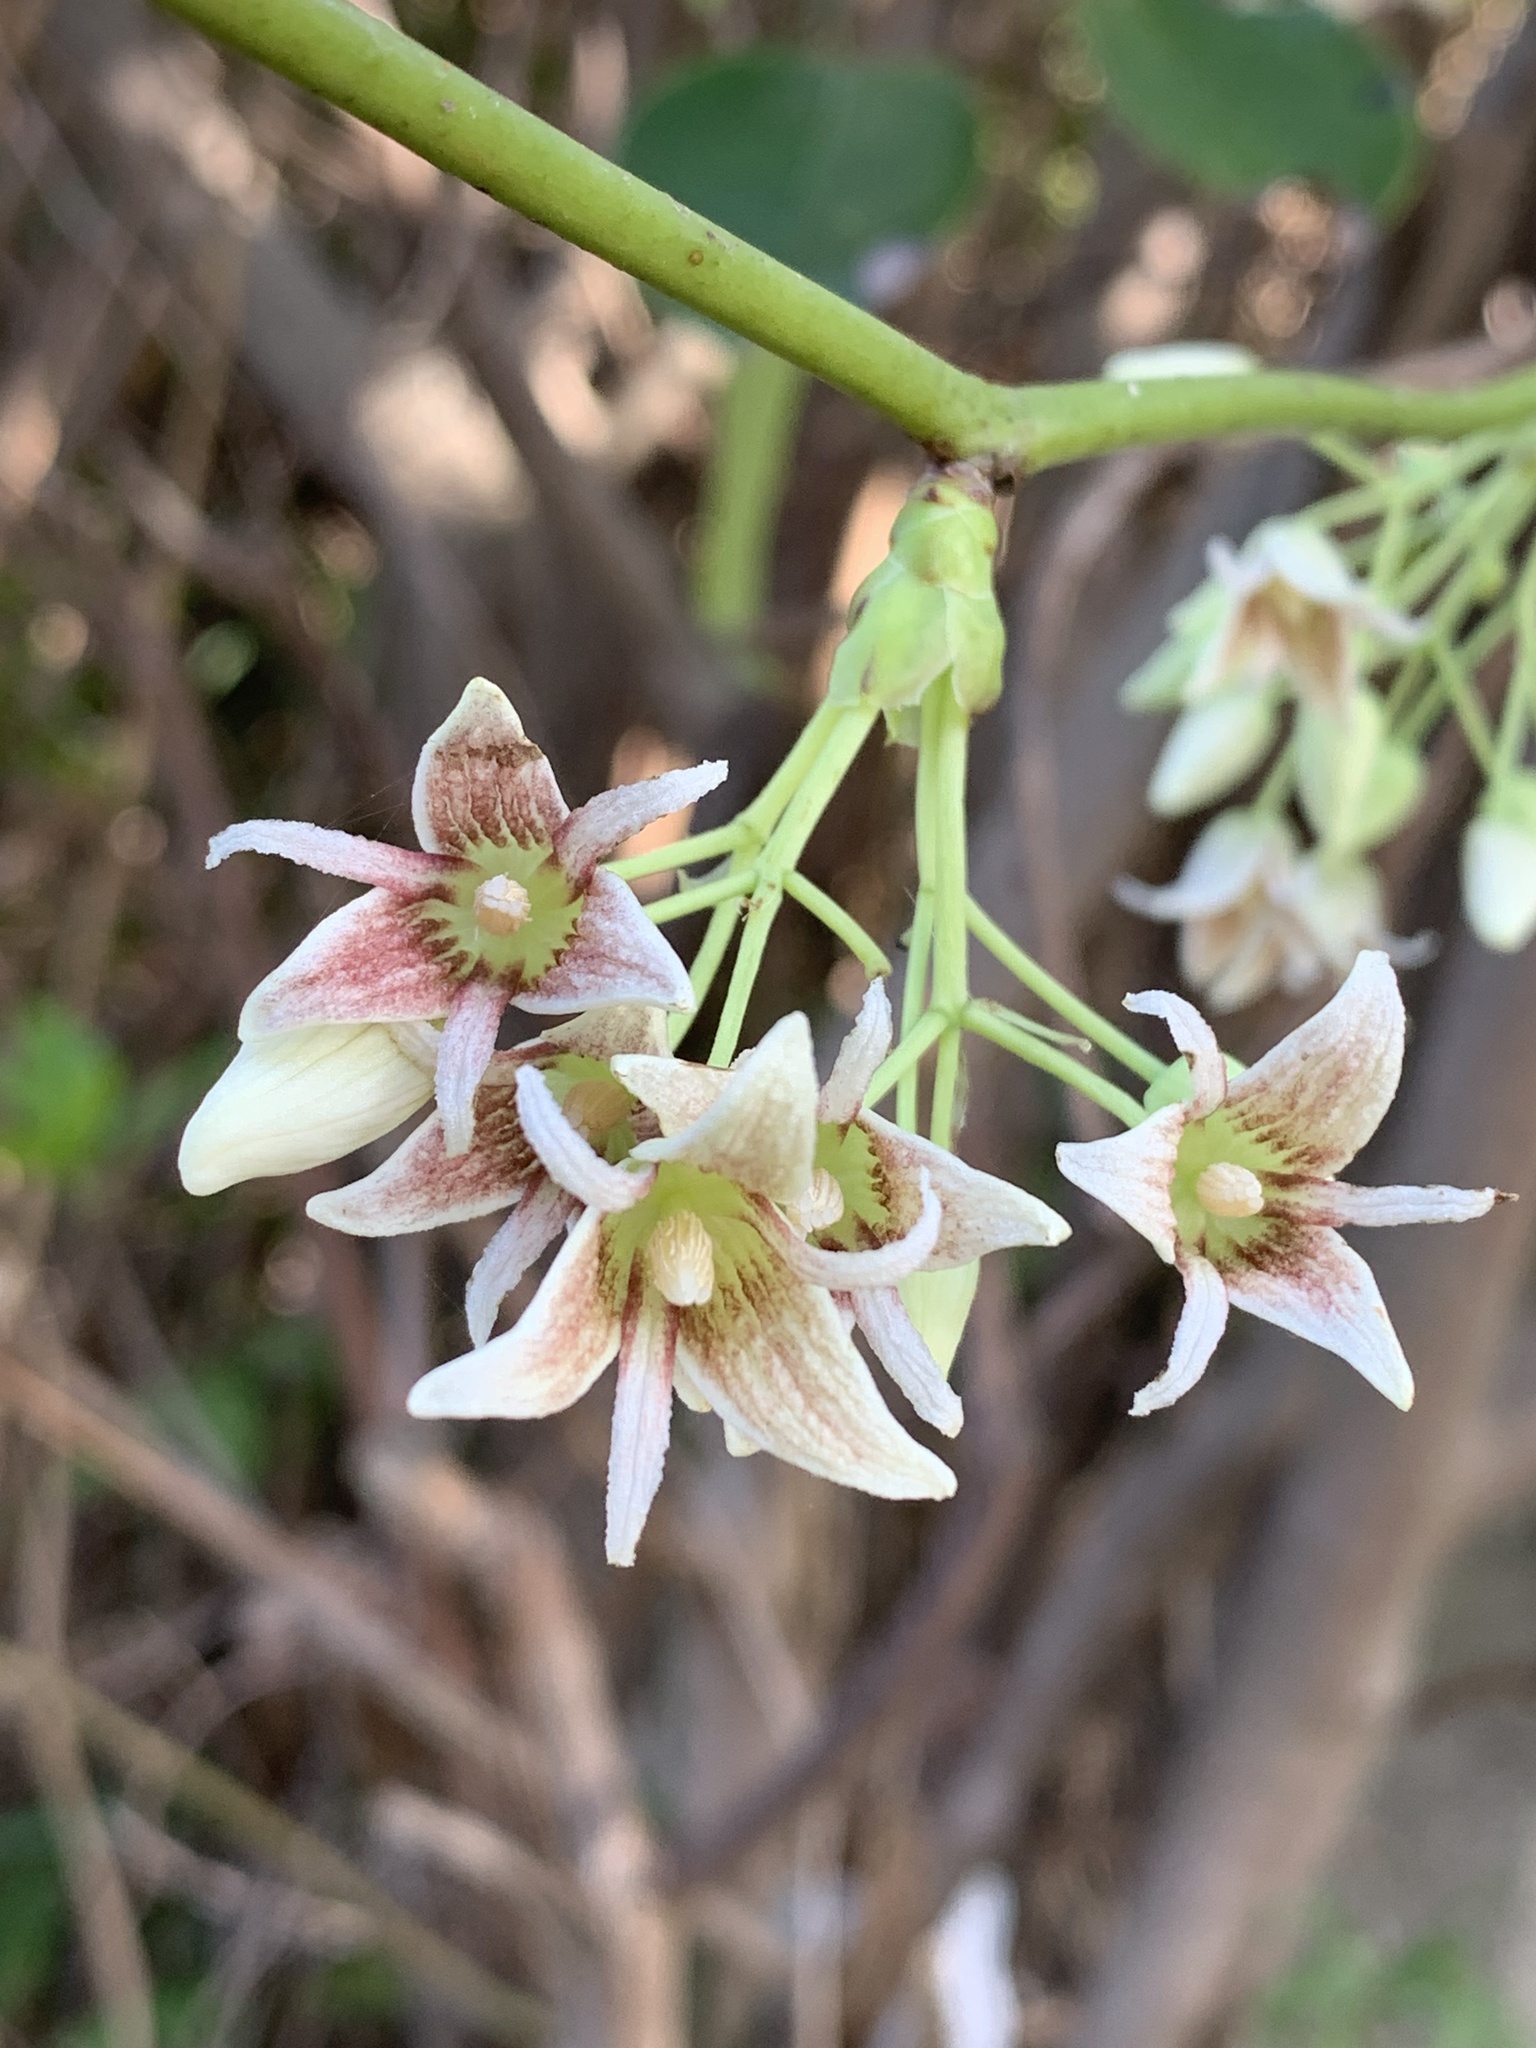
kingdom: Plantae
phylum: Tracheophyta
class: Magnoliopsida
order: Ranunculales
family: Lardizabalaceae
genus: Stauntonia
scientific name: Stauntonia hexaphylla
